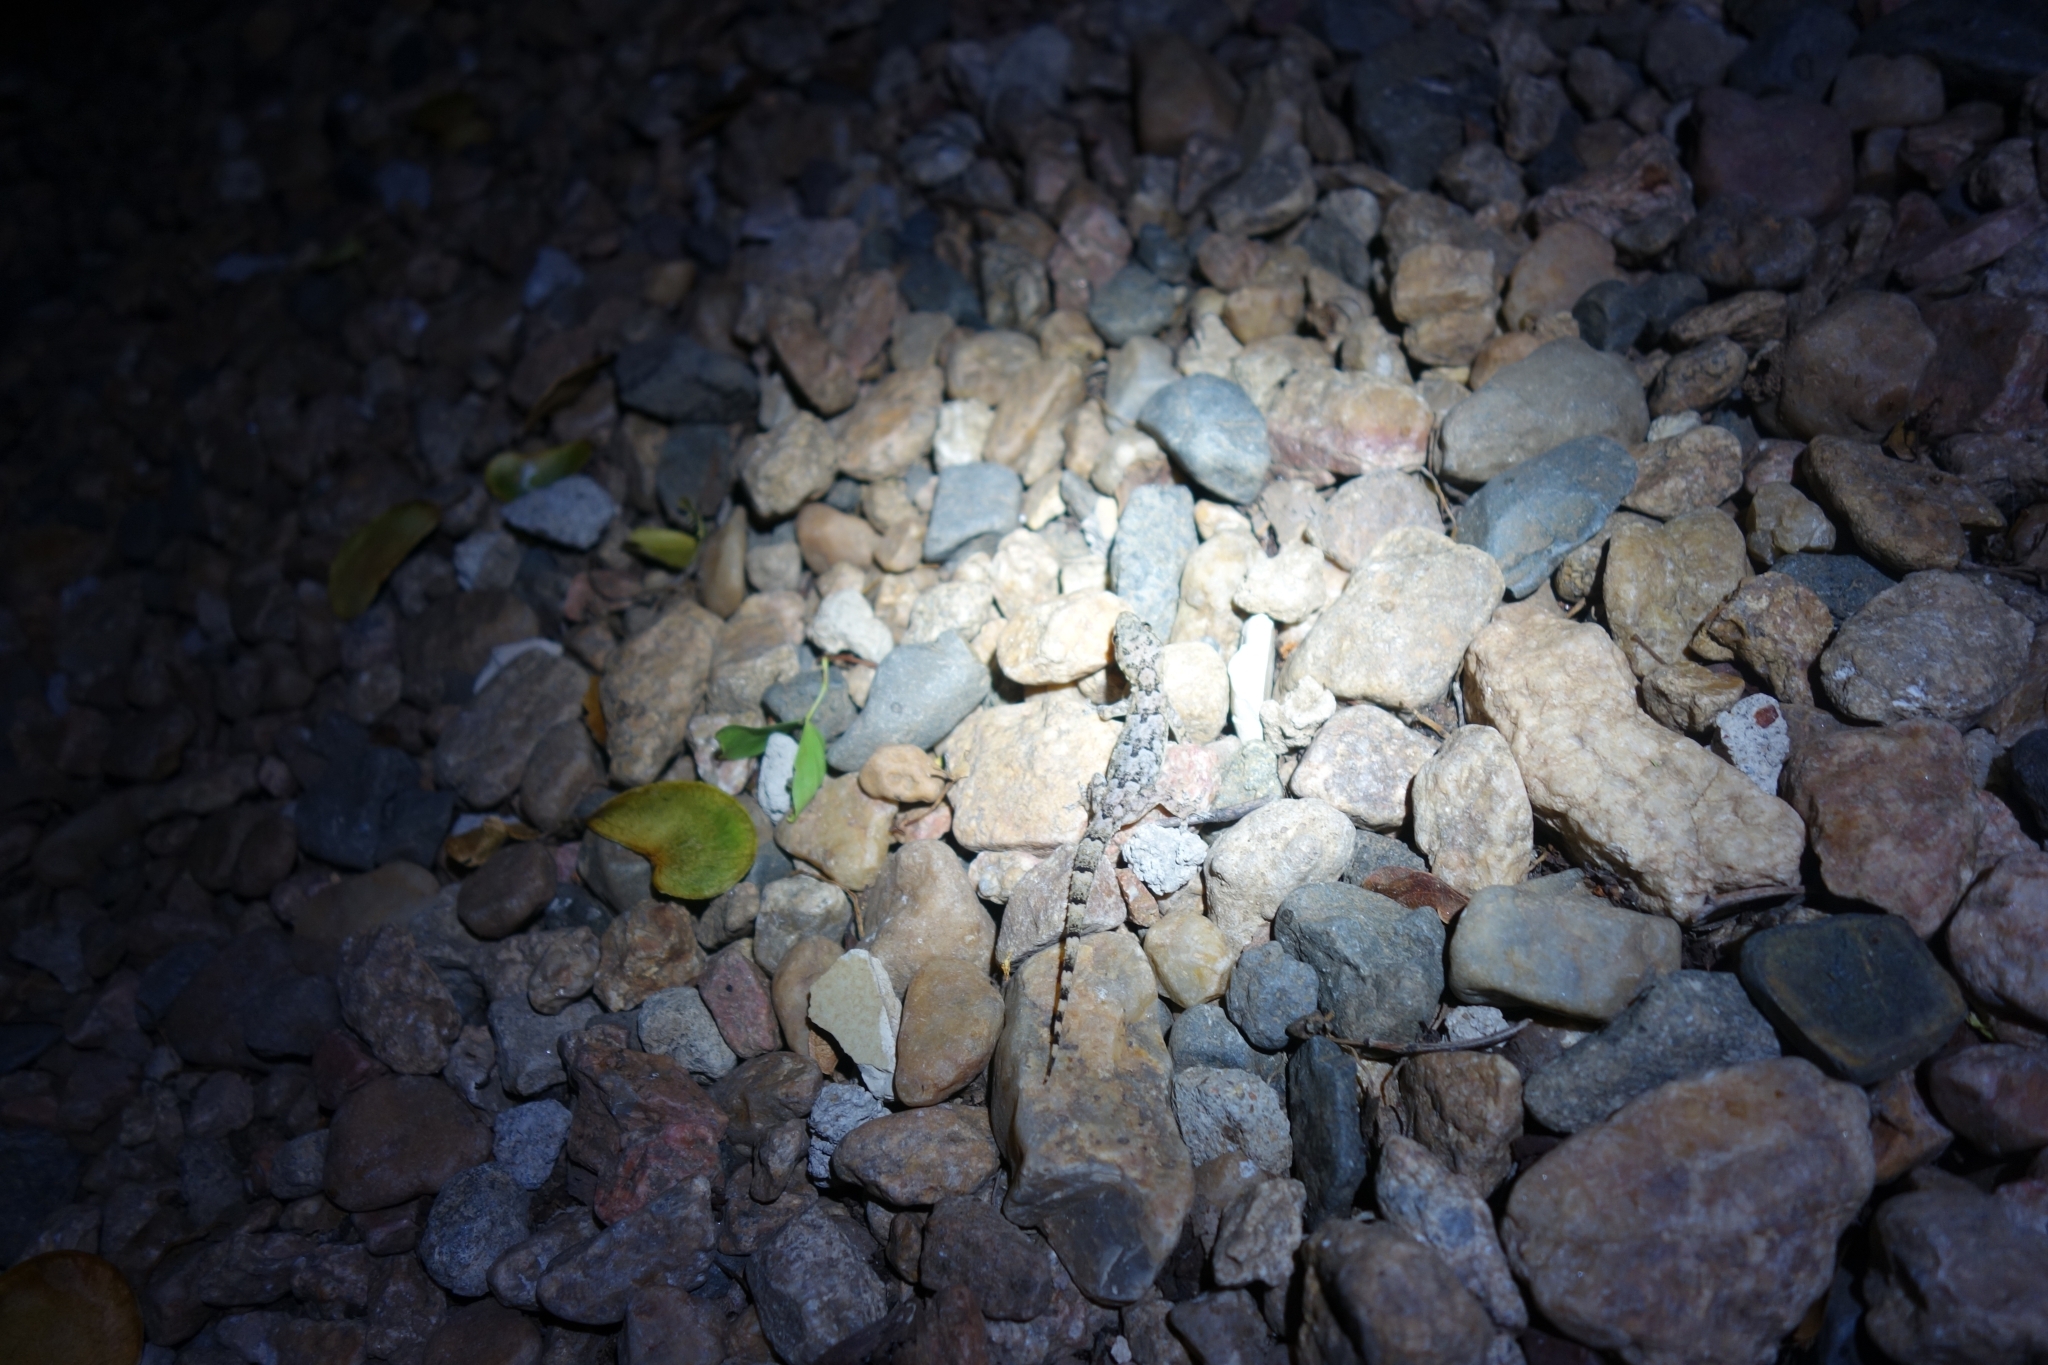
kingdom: Animalia
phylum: Chordata
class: Squamata
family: Gekkonidae
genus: Hemidactylus
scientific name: Hemidactylus mabouia
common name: House gecko
